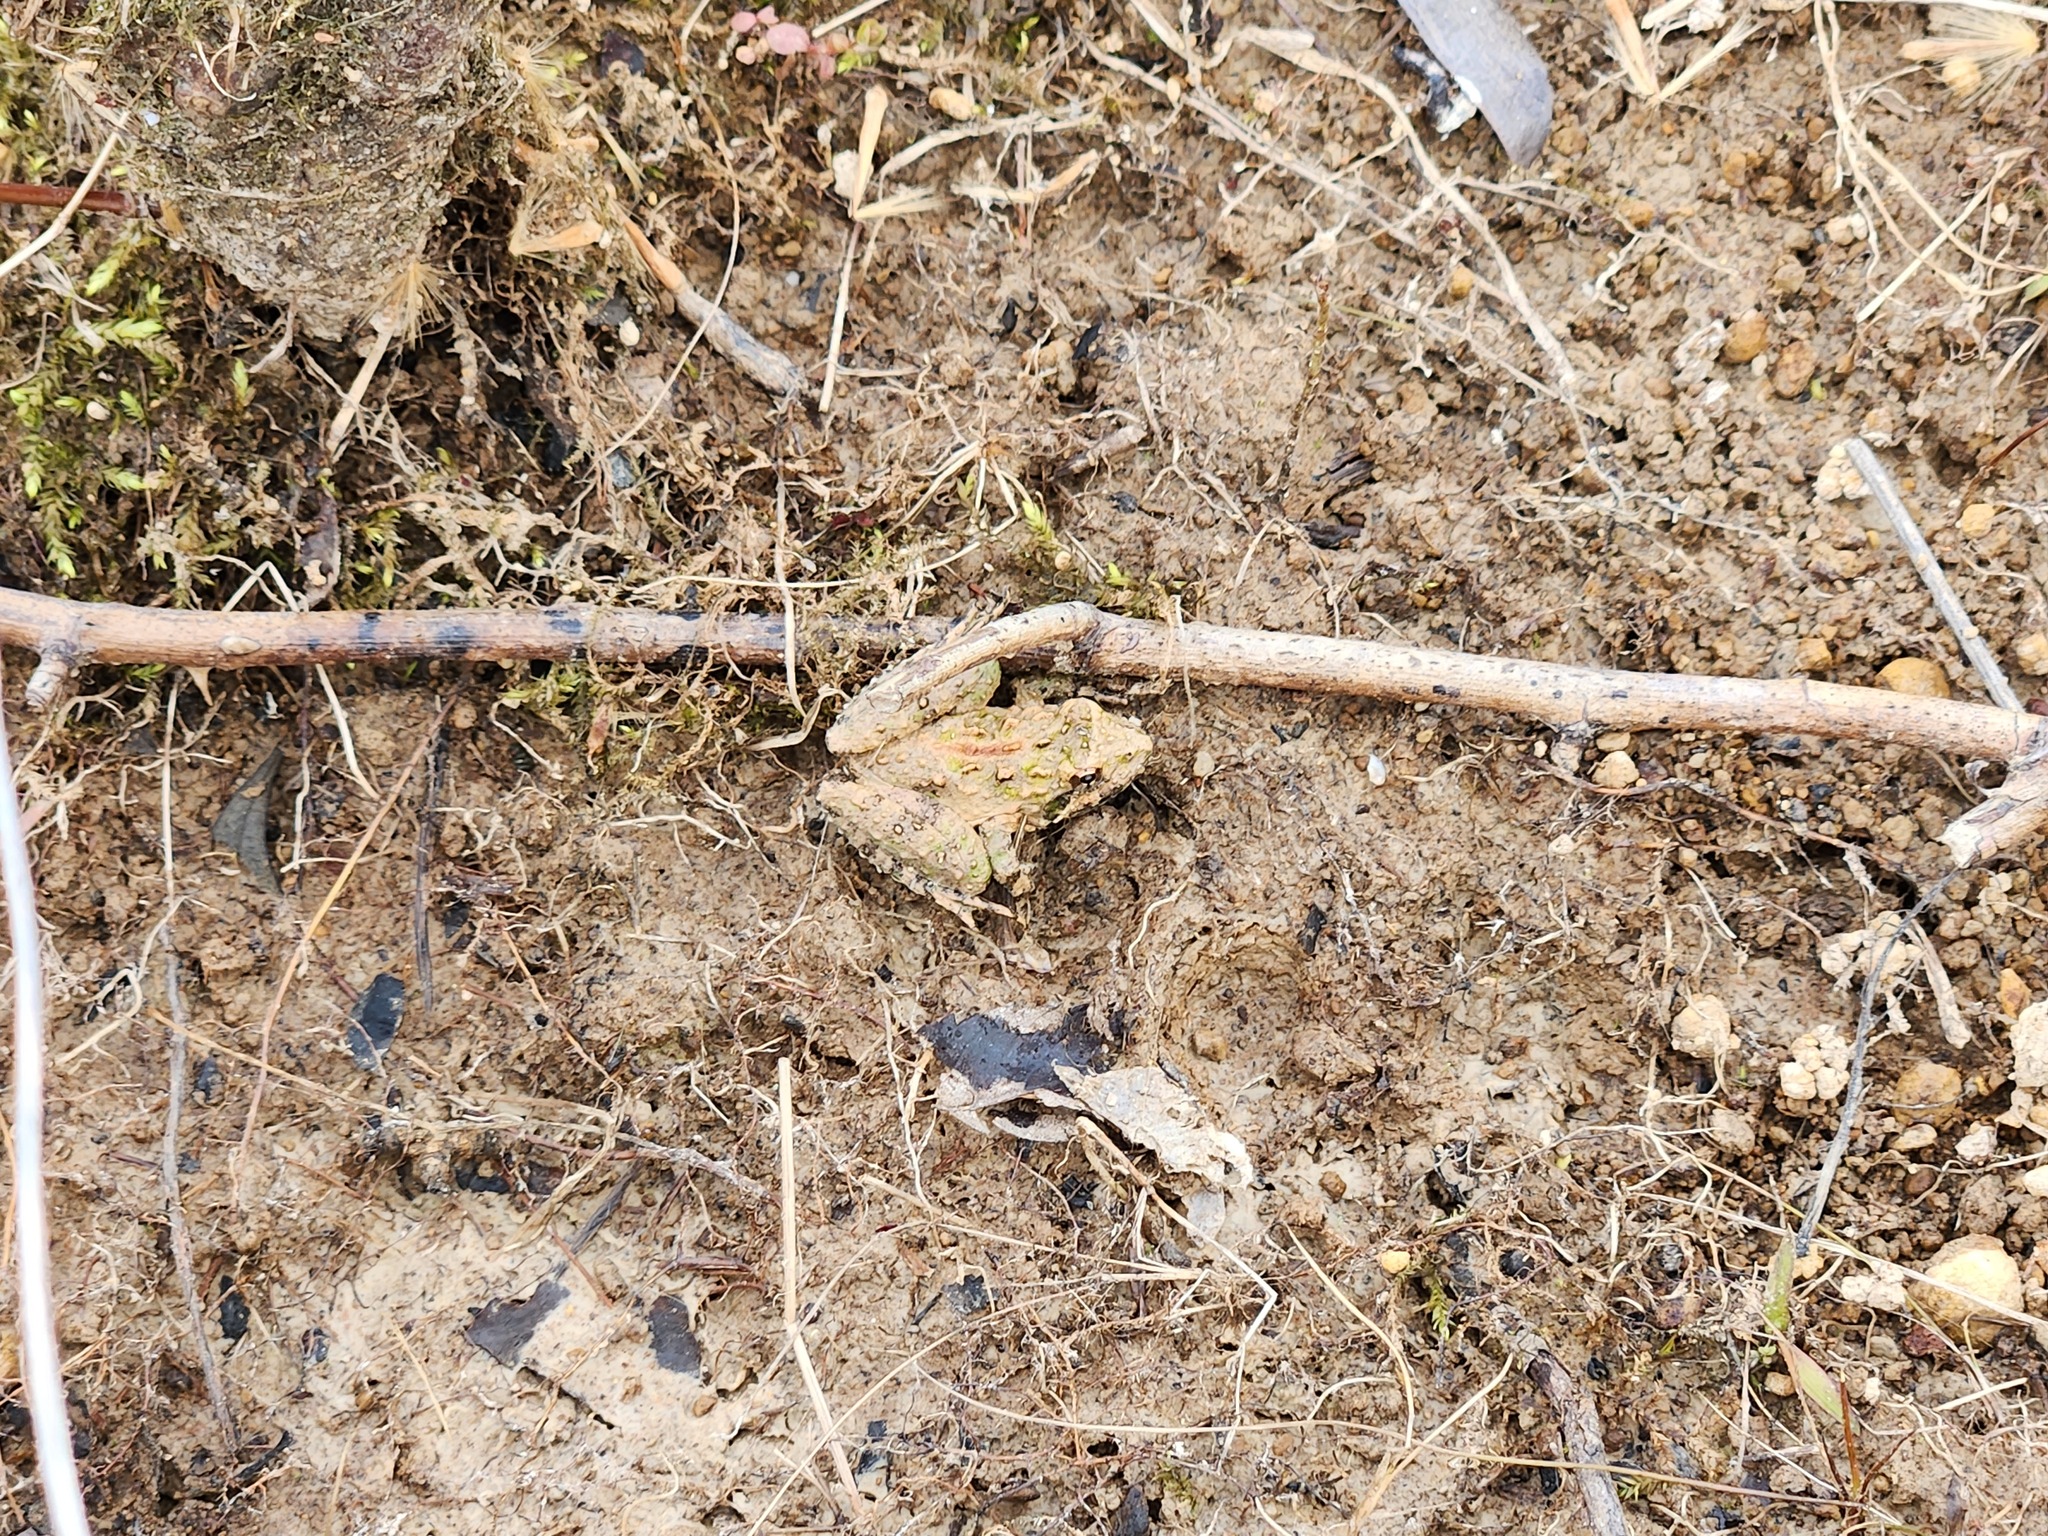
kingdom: Animalia
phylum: Chordata
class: Amphibia
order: Anura
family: Hylidae
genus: Acris
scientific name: Acris crepitans
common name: Northern cricket frog
